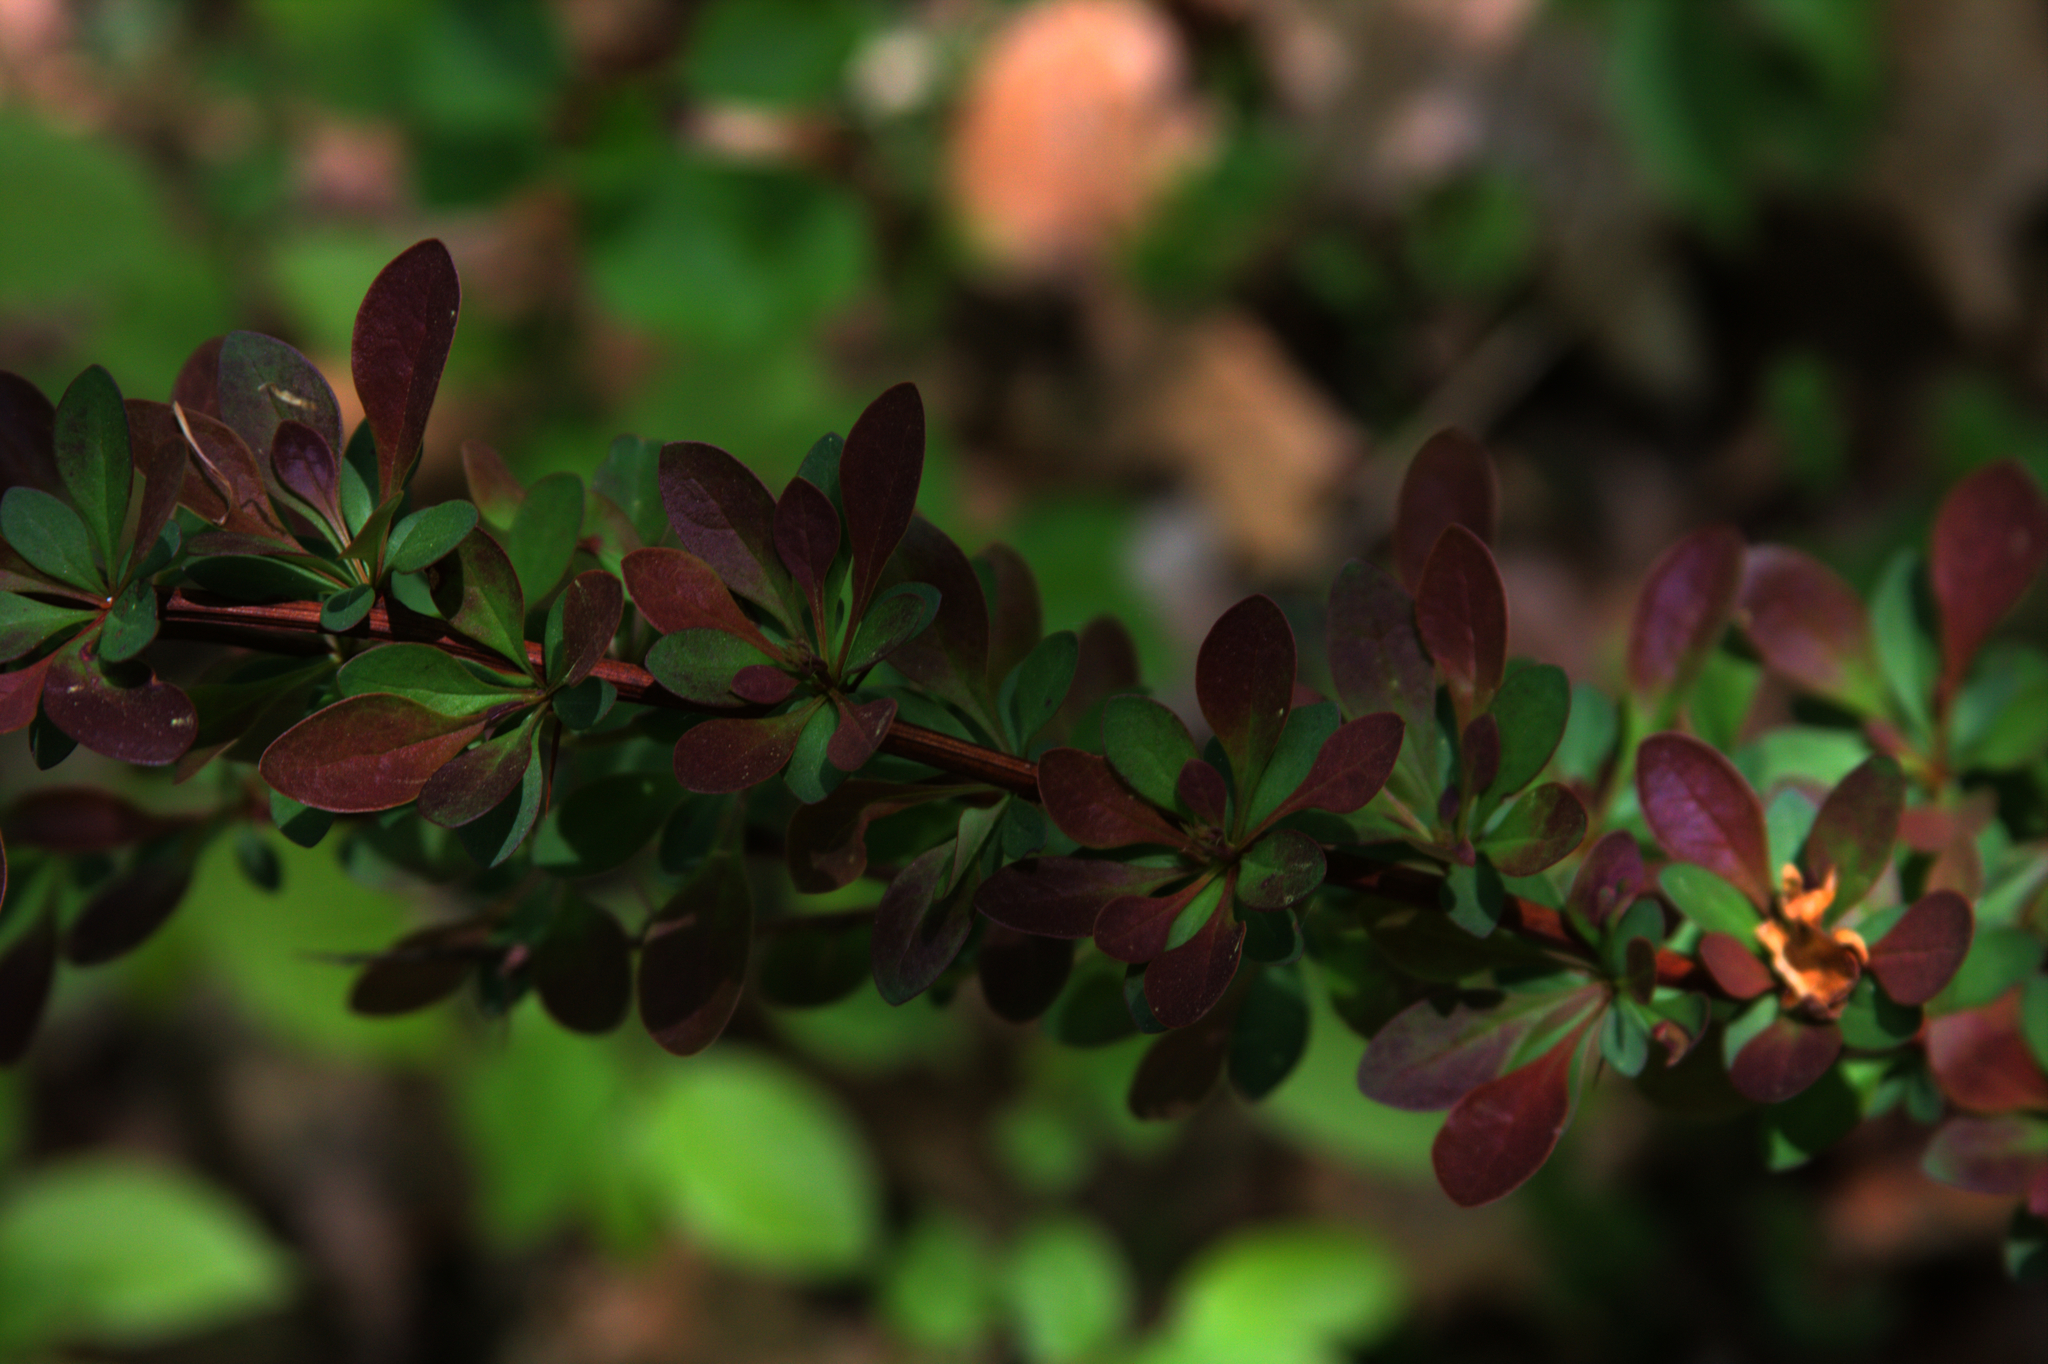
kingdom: Plantae
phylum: Tracheophyta
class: Magnoliopsida
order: Ranunculales
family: Berberidaceae
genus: Berberis
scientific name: Berberis thunbergii
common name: Japanese barberry
